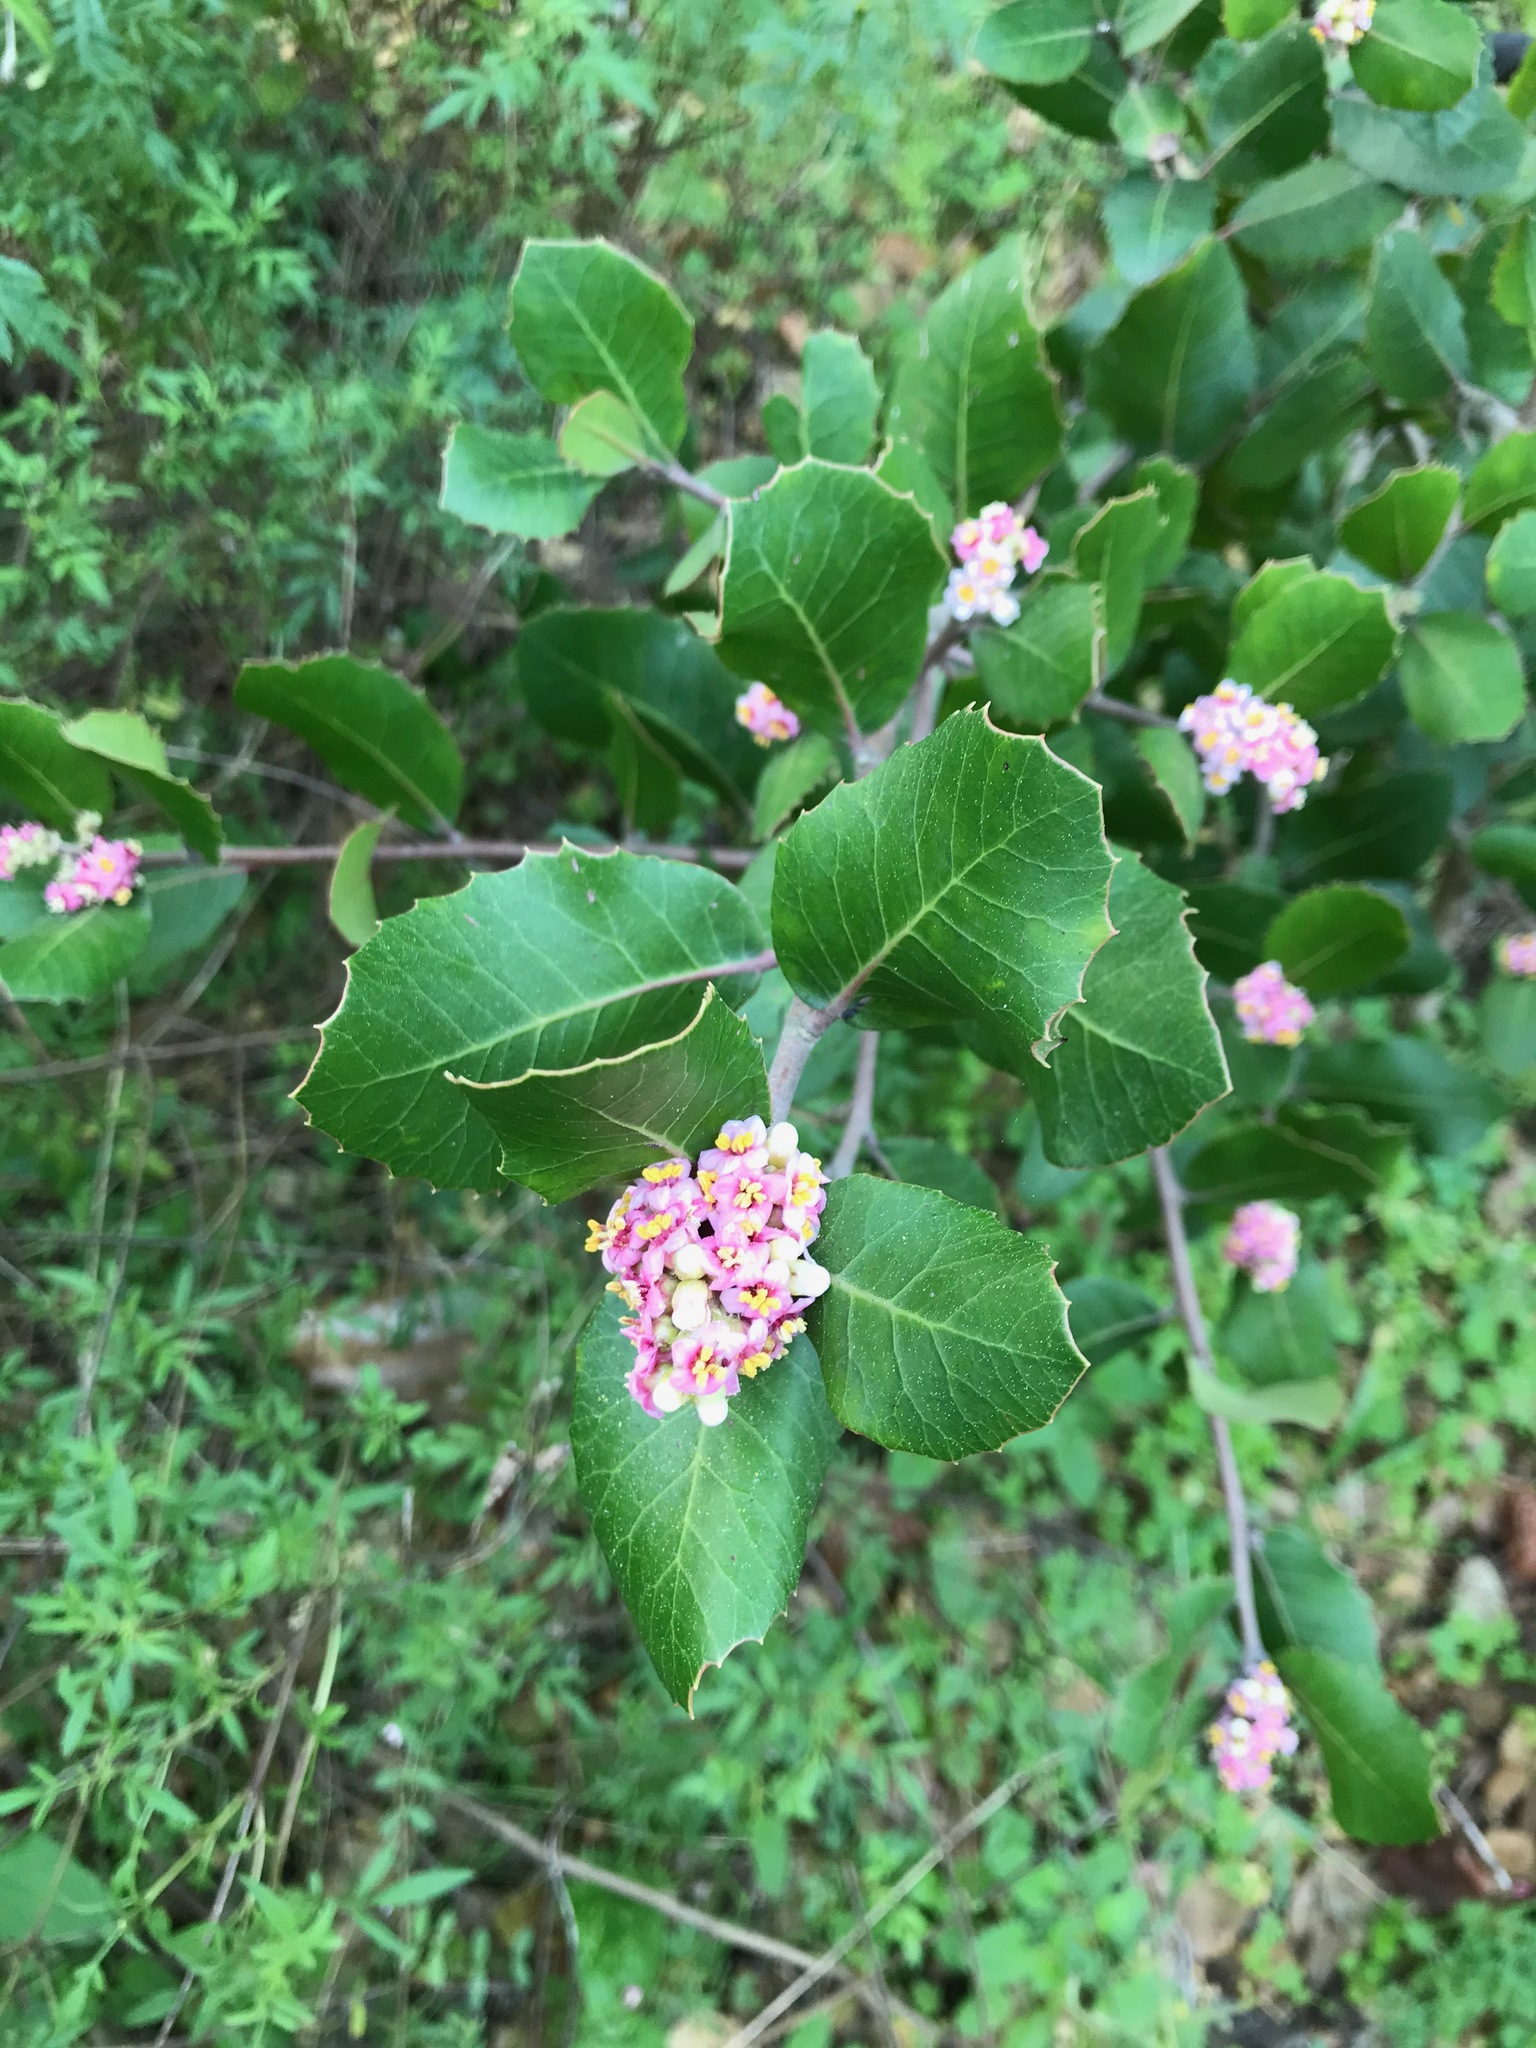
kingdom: Plantae
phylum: Tracheophyta
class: Magnoliopsida
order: Sapindales
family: Anacardiaceae
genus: Rhus
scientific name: Rhus integrifolia
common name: Lemonade sumac
